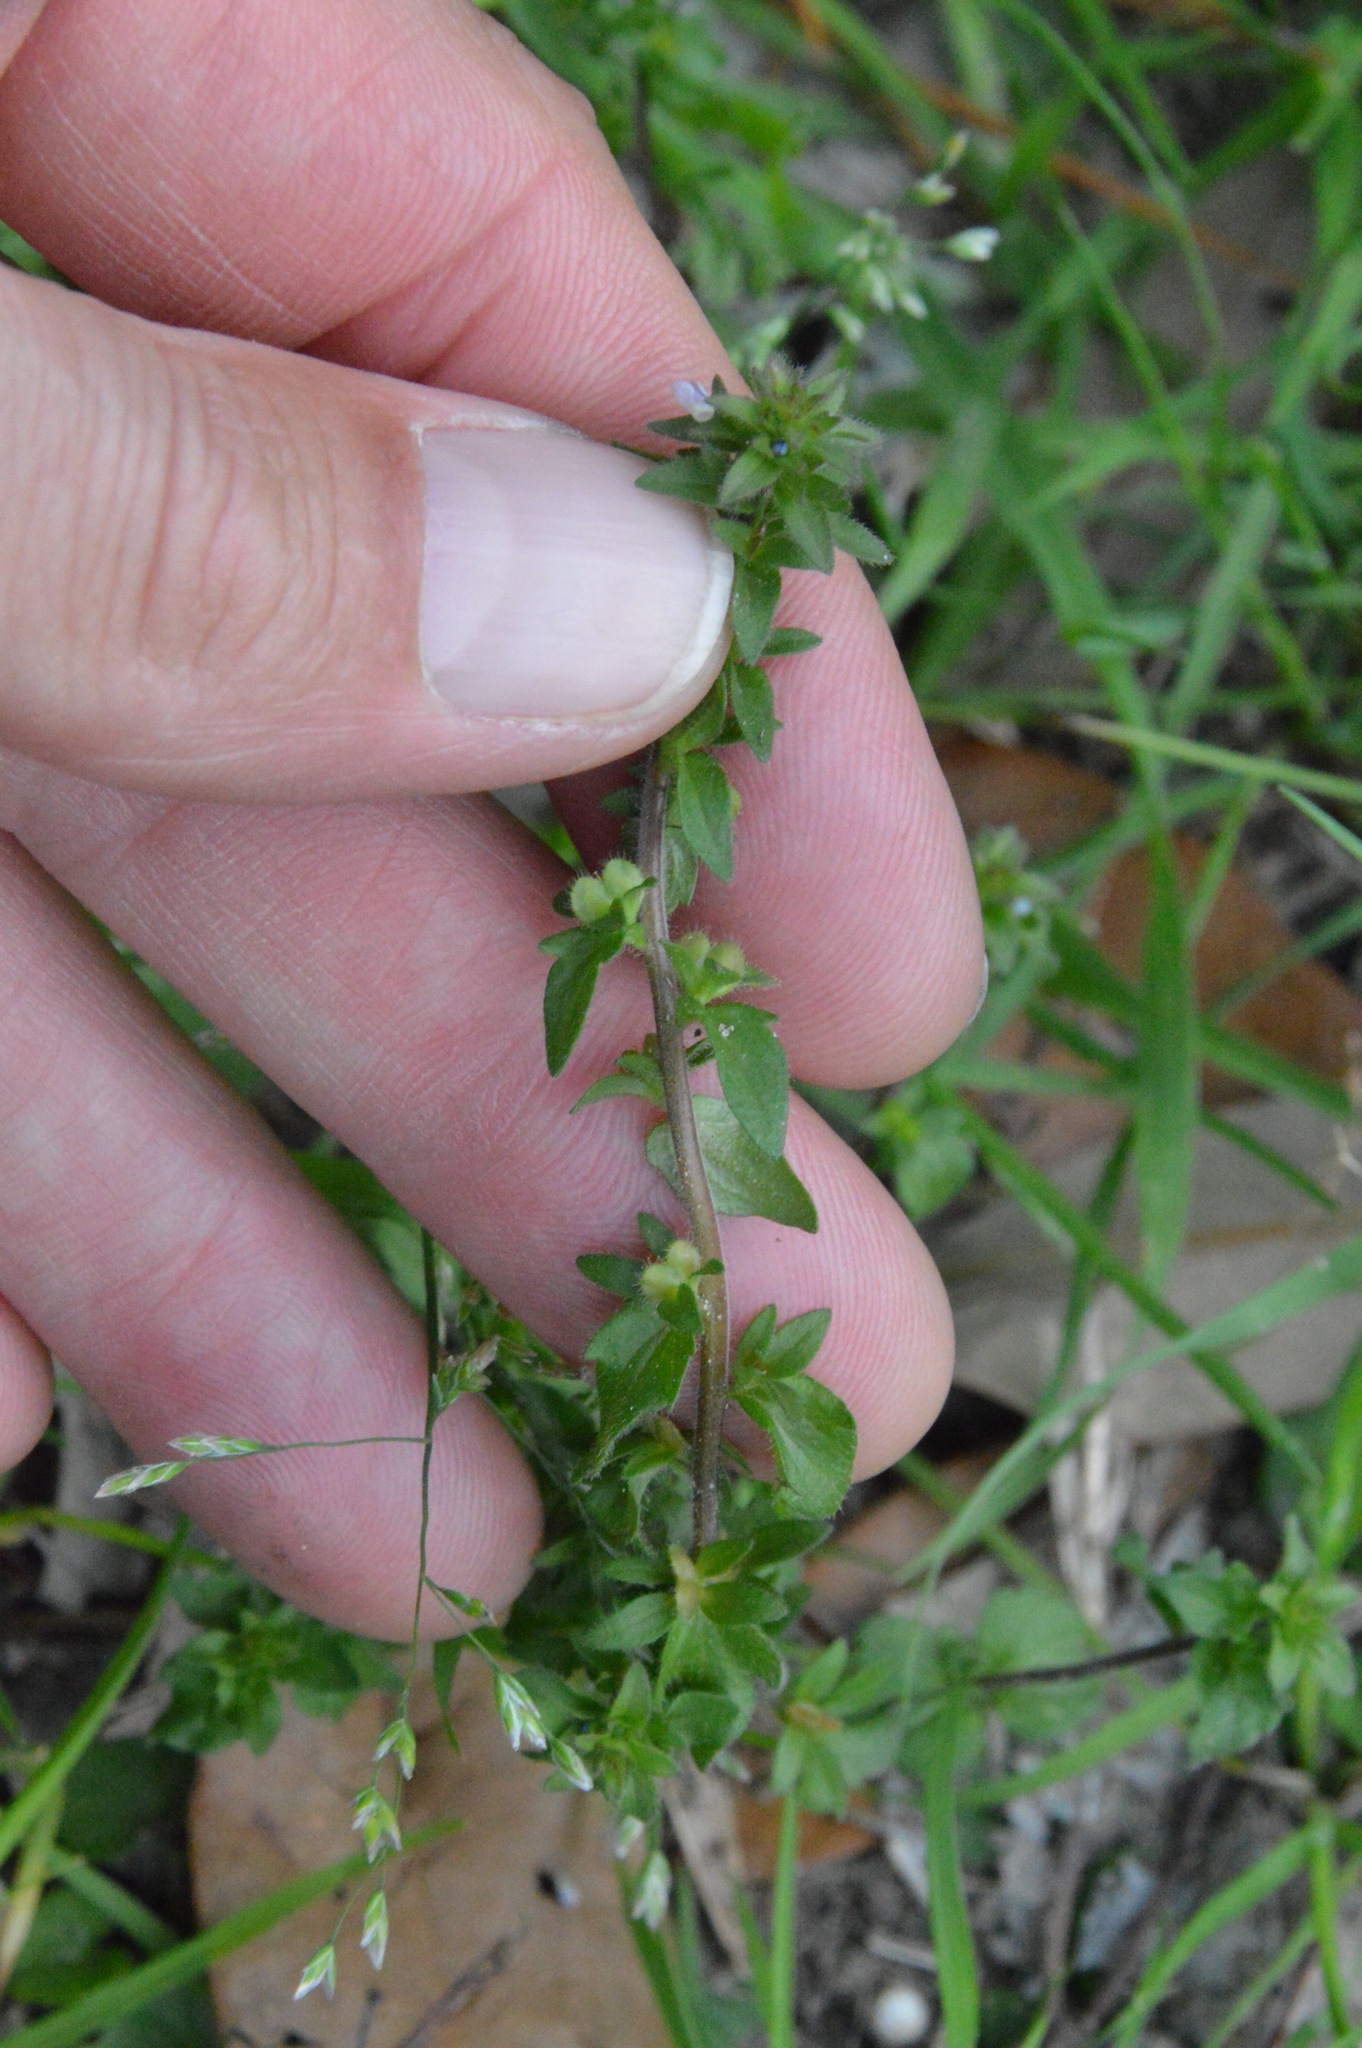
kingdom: Plantae
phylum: Tracheophyta
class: Magnoliopsida
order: Lamiales
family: Plantaginaceae
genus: Veronica
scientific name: Veronica arvensis
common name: Corn speedwell
